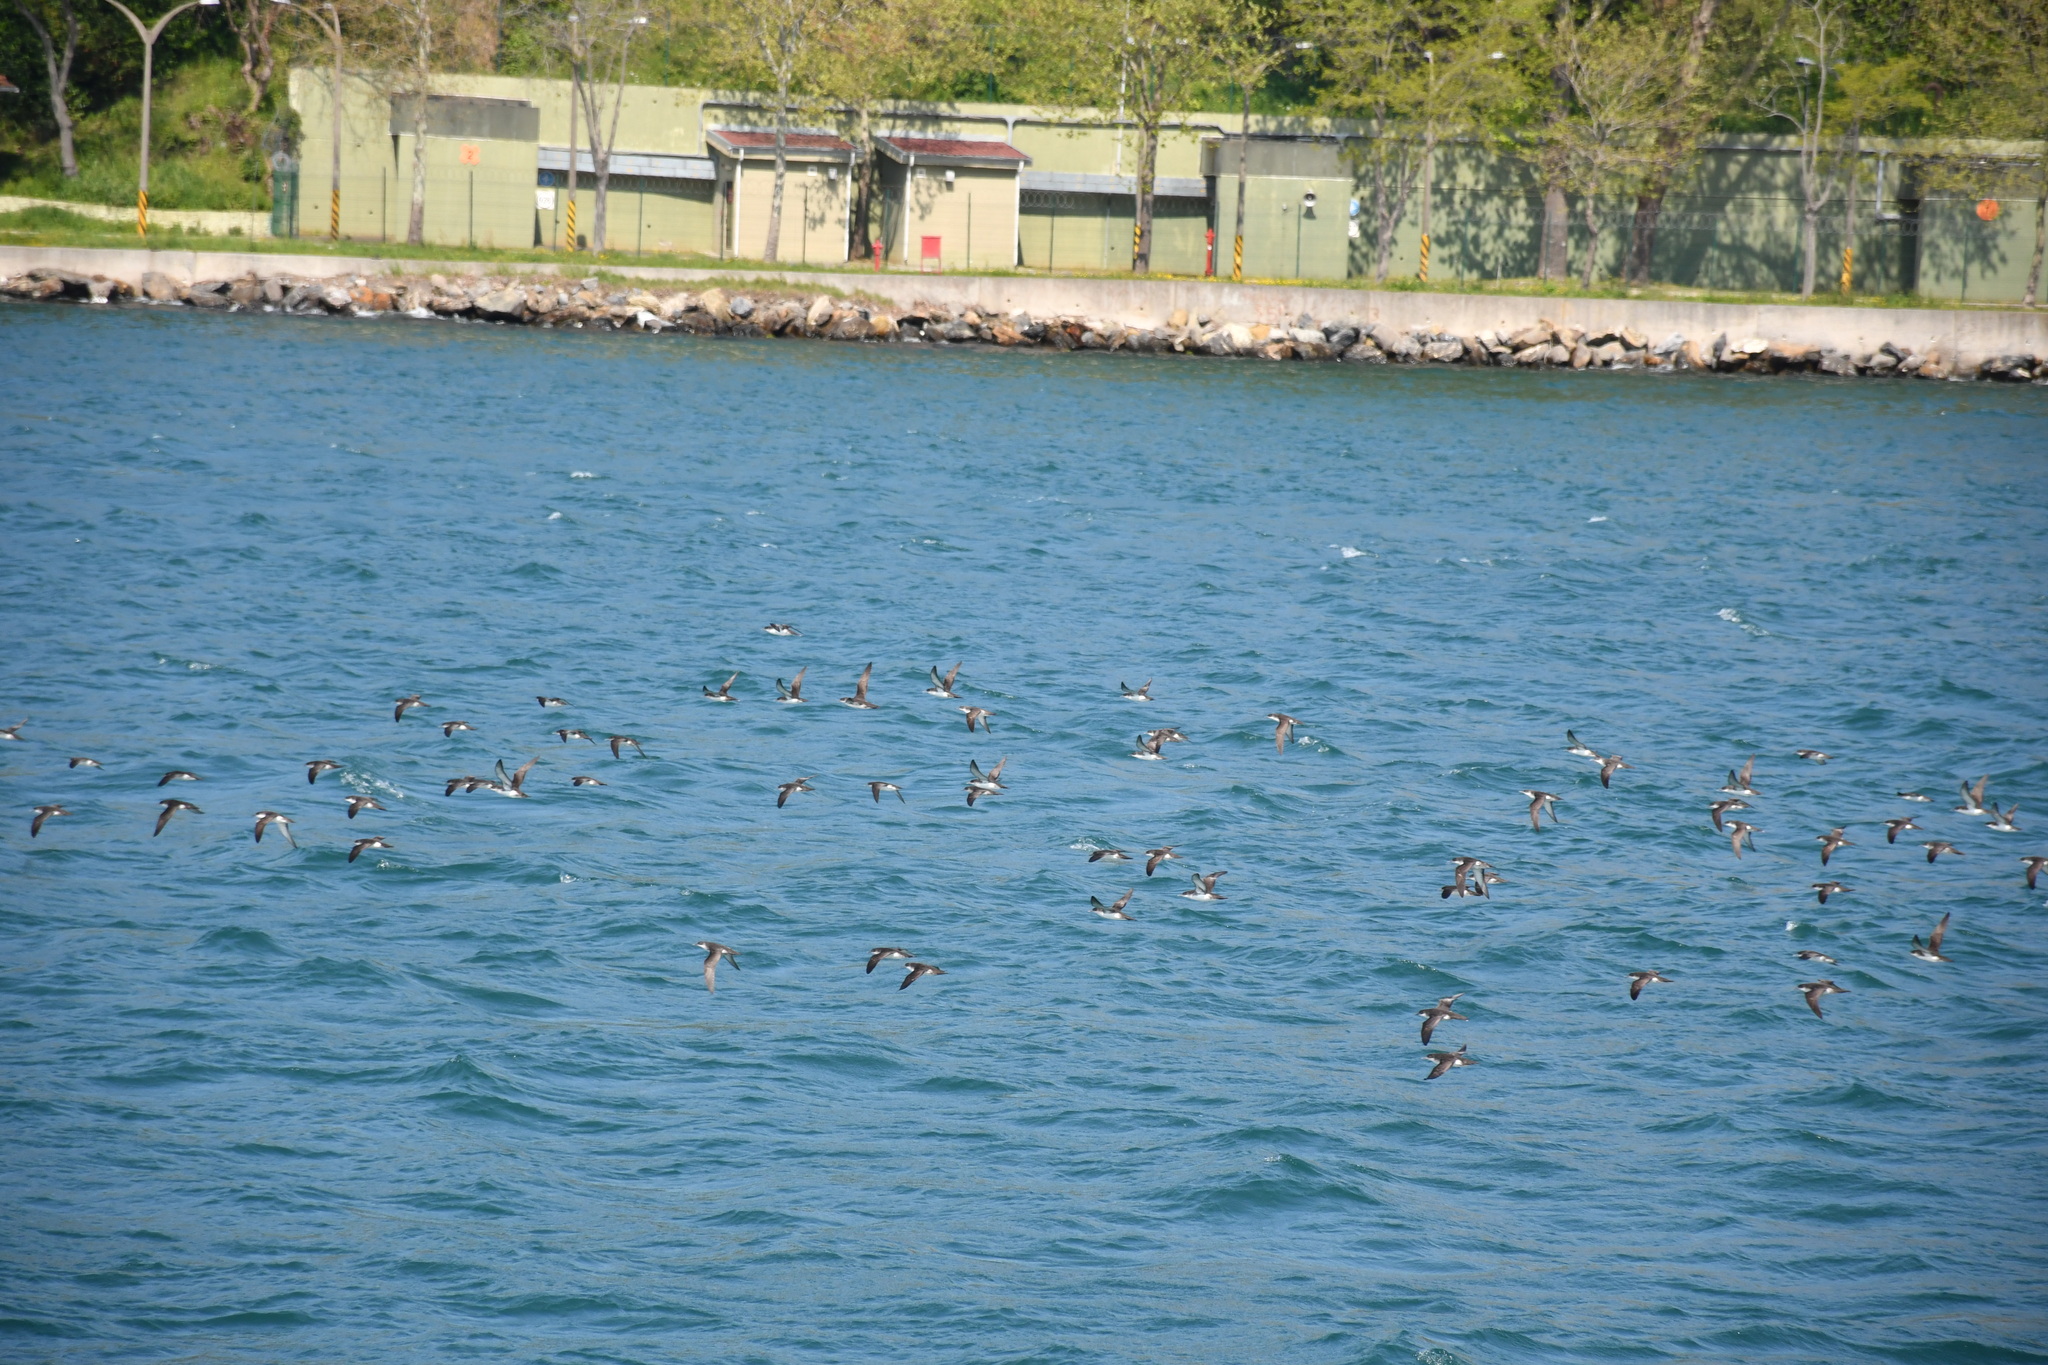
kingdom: Animalia
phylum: Chordata
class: Aves
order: Procellariiformes
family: Procellariidae
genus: Puffinus
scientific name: Puffinus yelkouan
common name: Yelkouan shearwater
